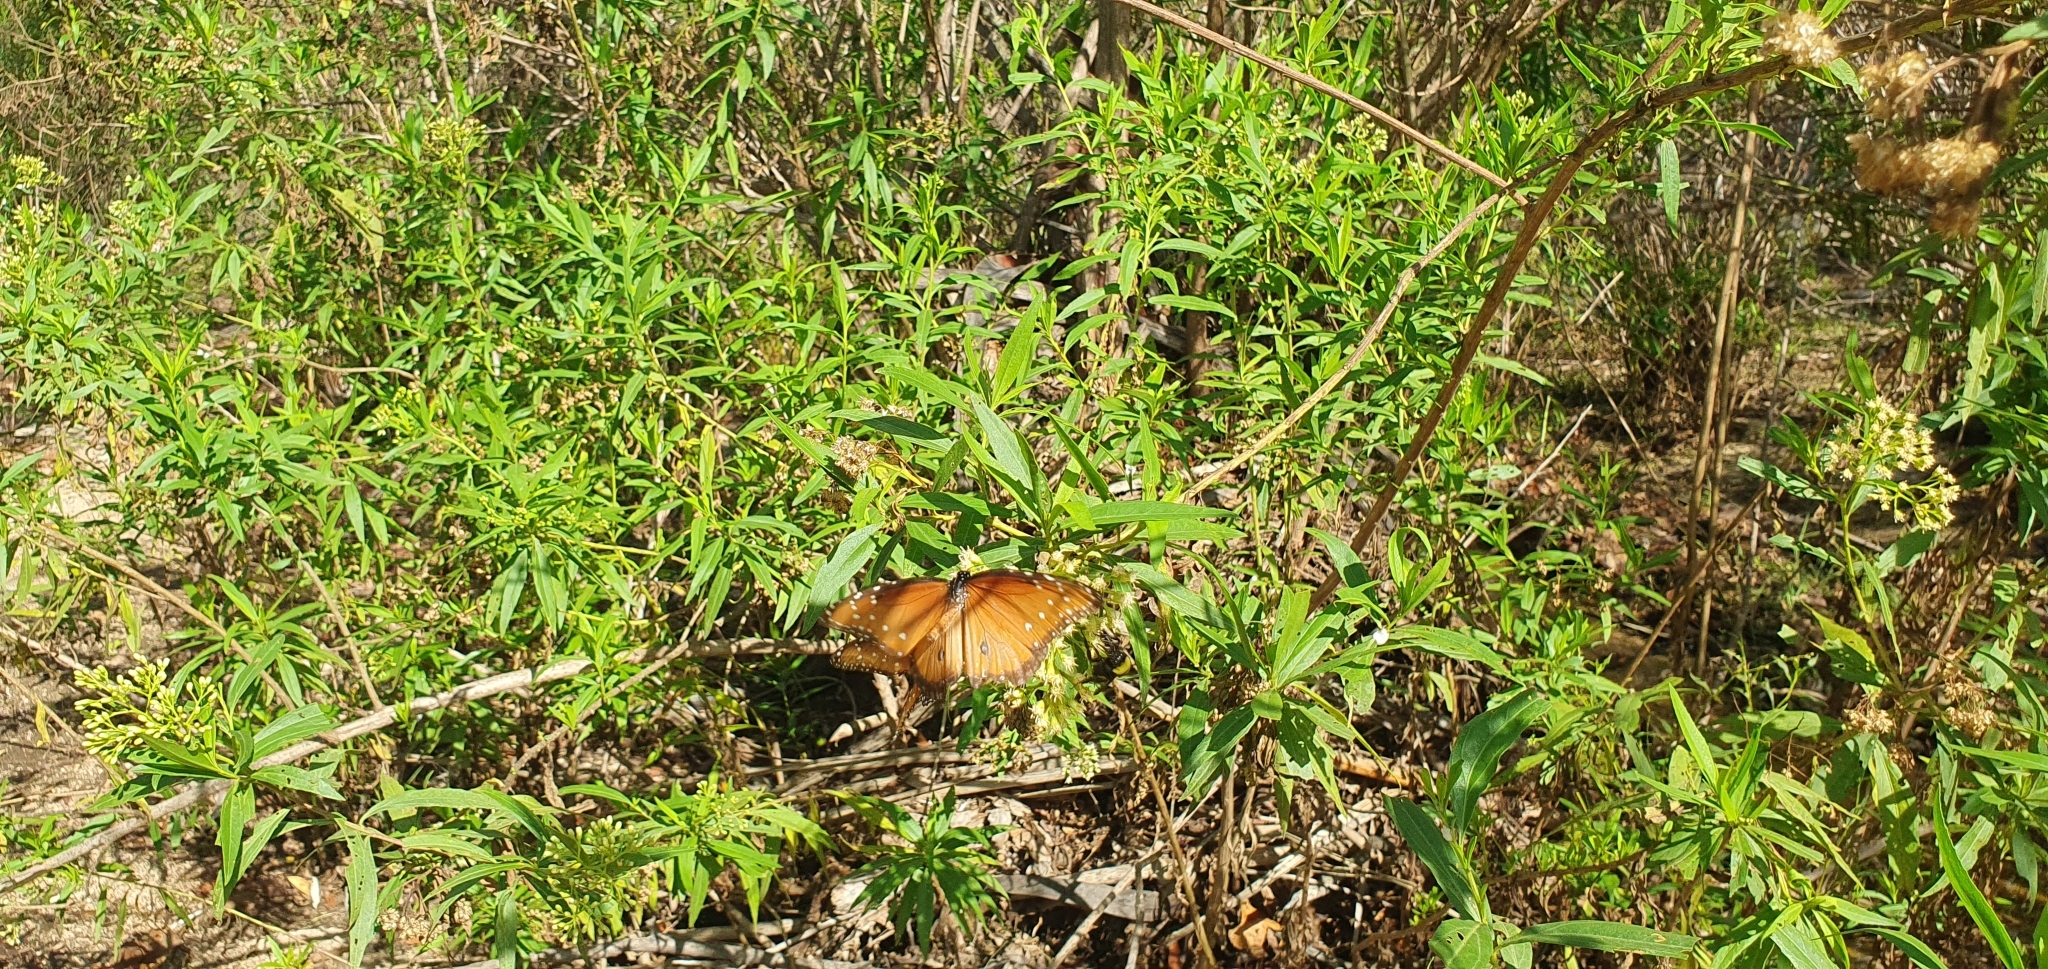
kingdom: Animalia
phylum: Arthropoda
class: Insecta
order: Lepidoptera
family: Nymphalidae
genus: Danaus
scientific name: Danaus gilippus
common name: Queen
